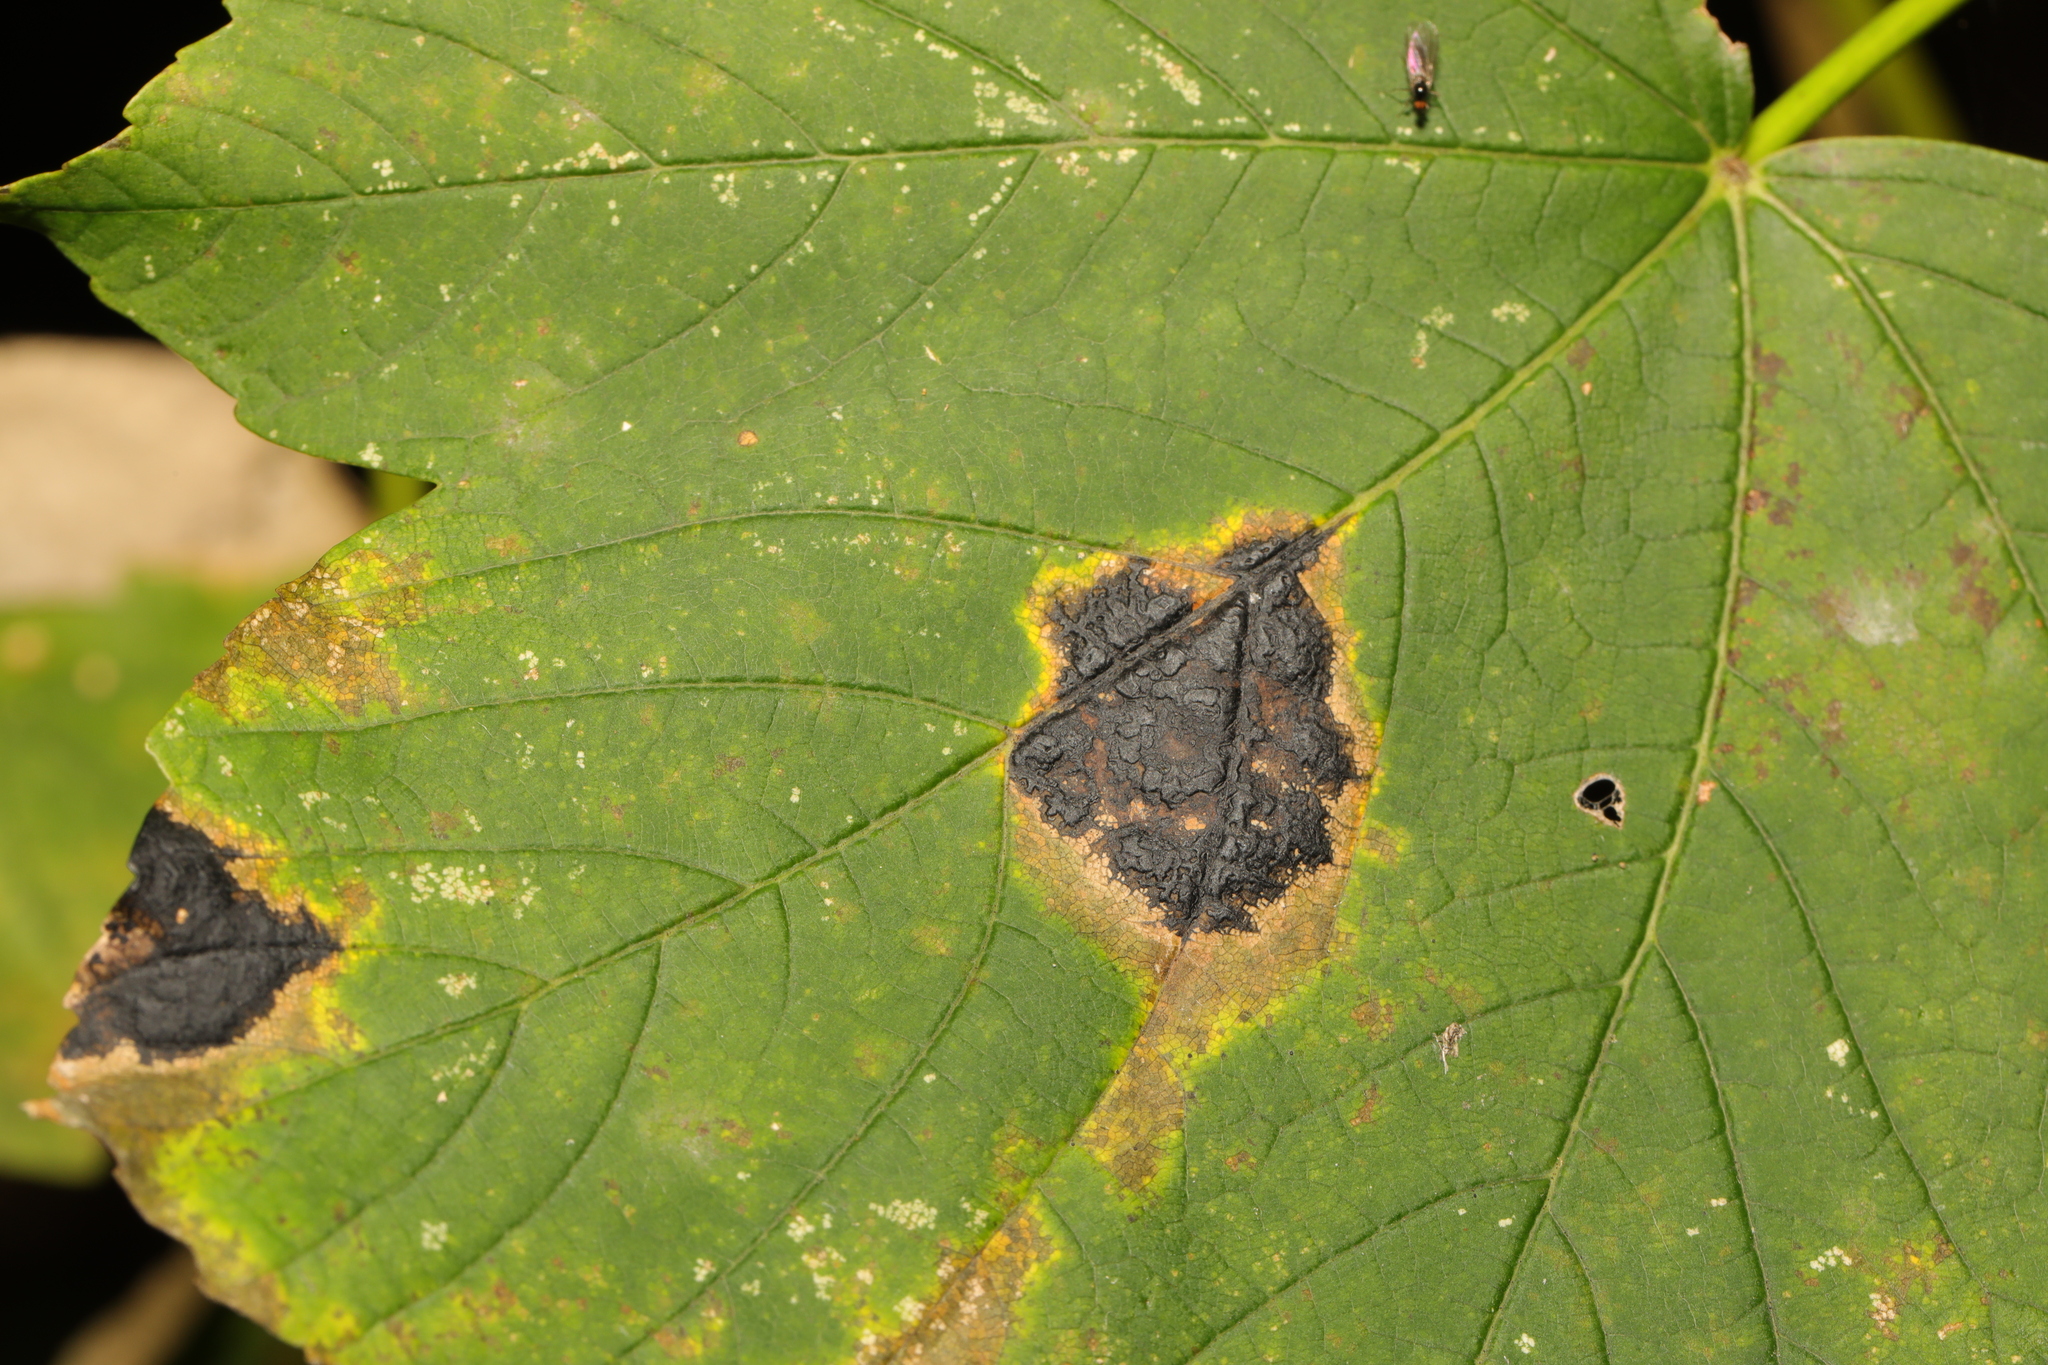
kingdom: Fungi
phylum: Ascomycota
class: Leotiomycetes
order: Rhytismatales
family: Rhytismataceae
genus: Rhytisma
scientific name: Rhytisma acerinum
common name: European tar spot
